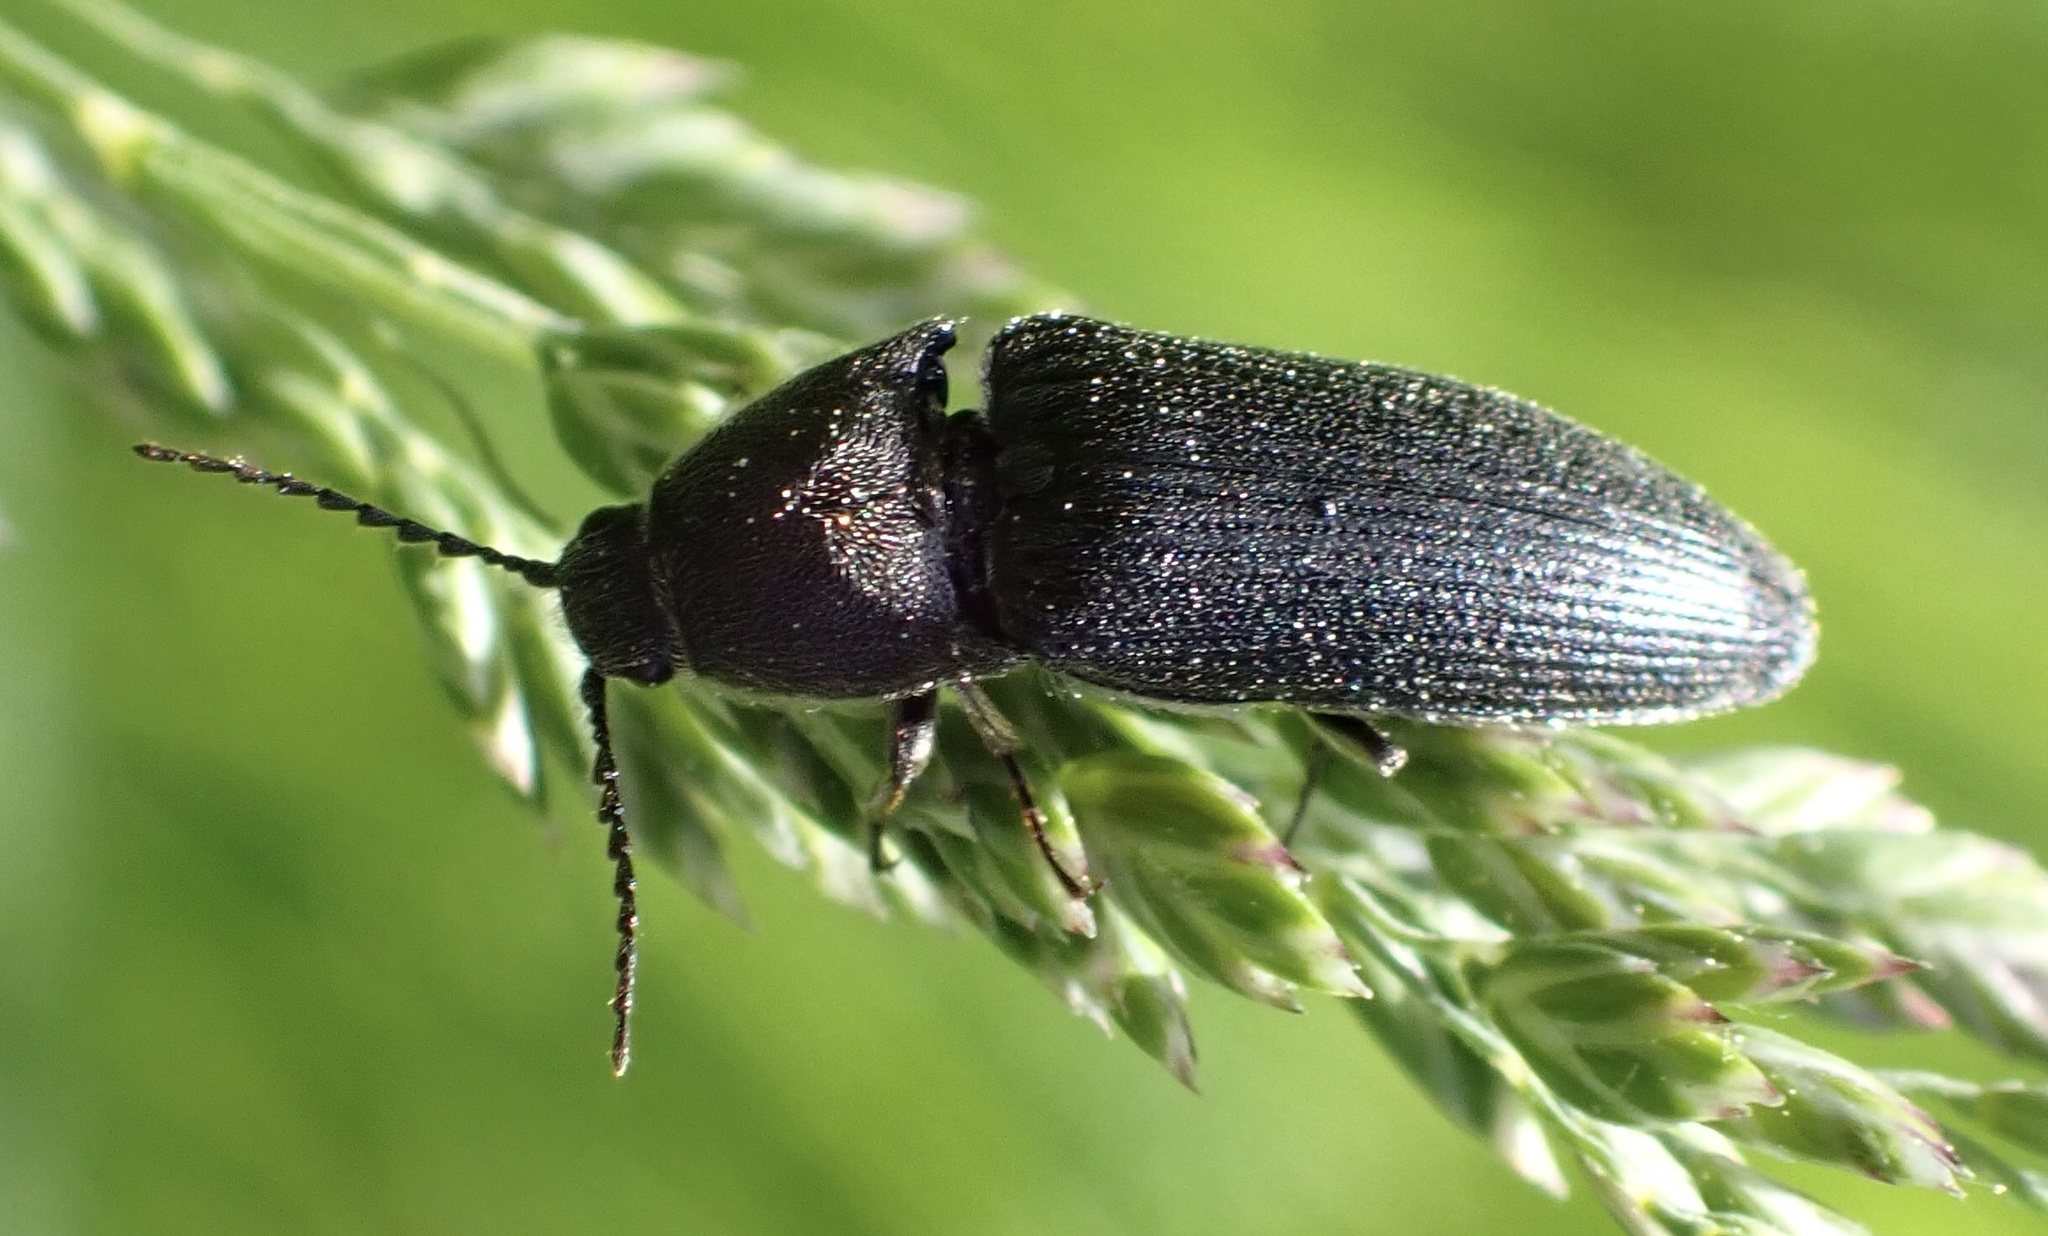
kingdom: Animalia
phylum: Arthropoda
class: Insecta
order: Coleoptera
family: Elateridae
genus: Melanotus
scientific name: Melanotus punctolineatus
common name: Sandwich click beetle
